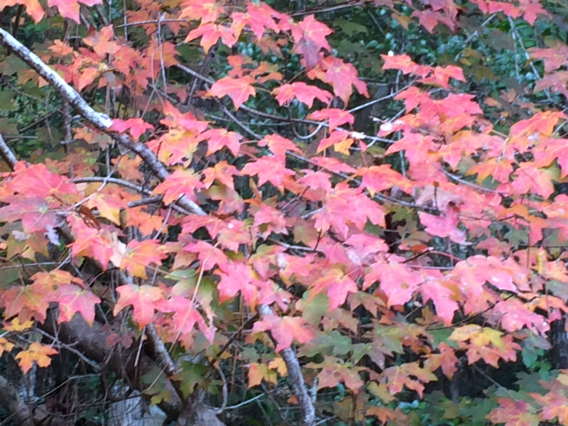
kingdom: Plantae
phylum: Tracheophyta
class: Magnoliopsida
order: Sapindales
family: Sapindaceae
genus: Acer
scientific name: Acer floridanum
